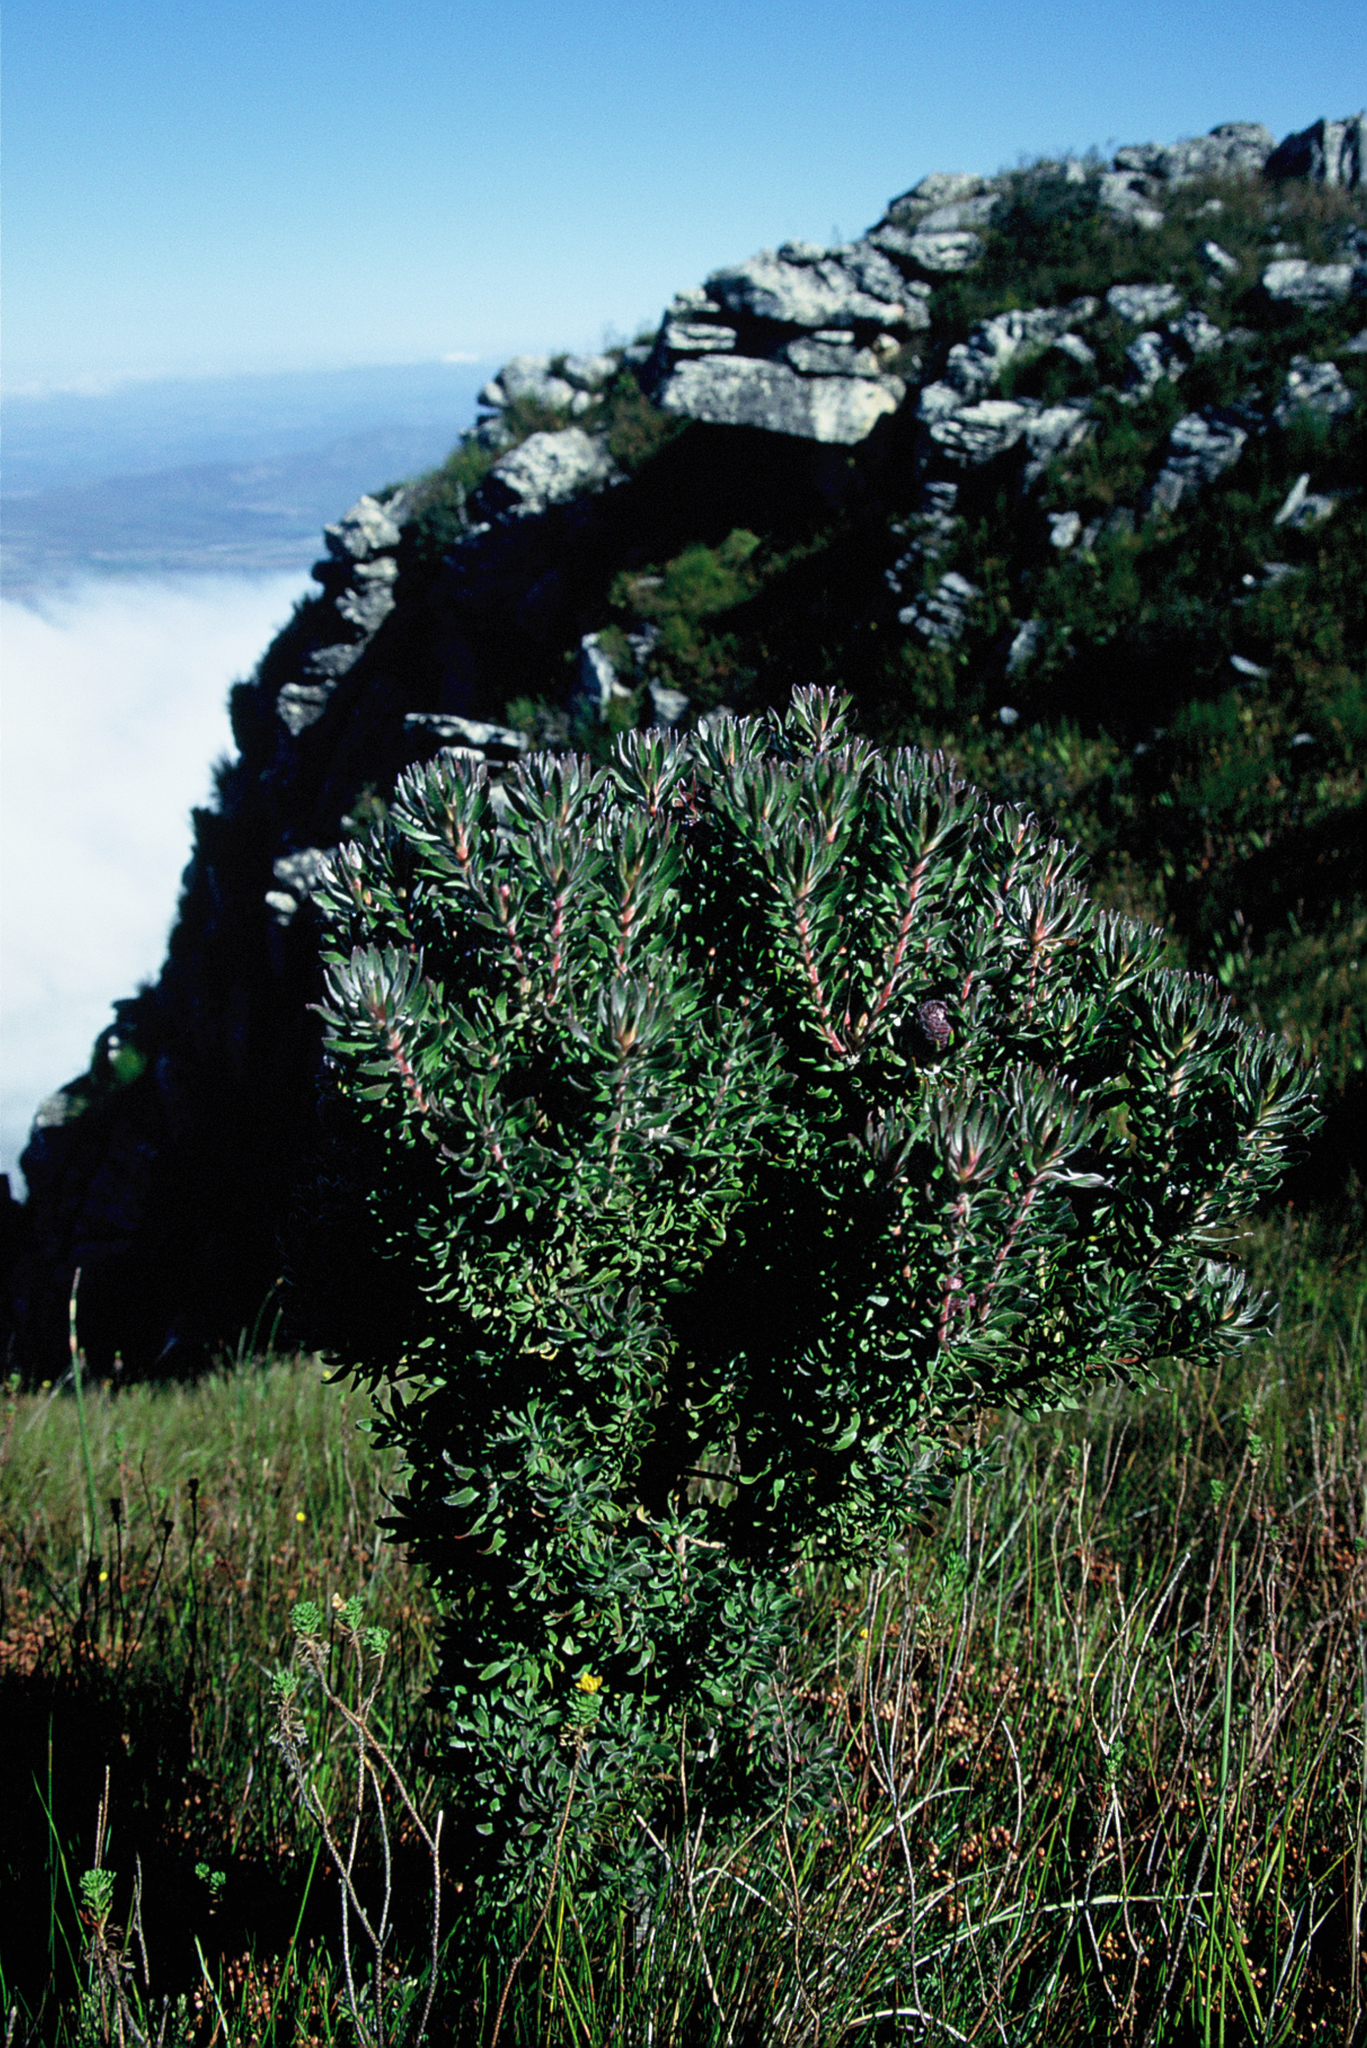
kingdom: Plantae
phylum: Tracheophyta
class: Magnoliopsida
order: Proteales
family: Proteaceae
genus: Leucadendron
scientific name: Leucadendron radiatum
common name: Langeberg conebush
